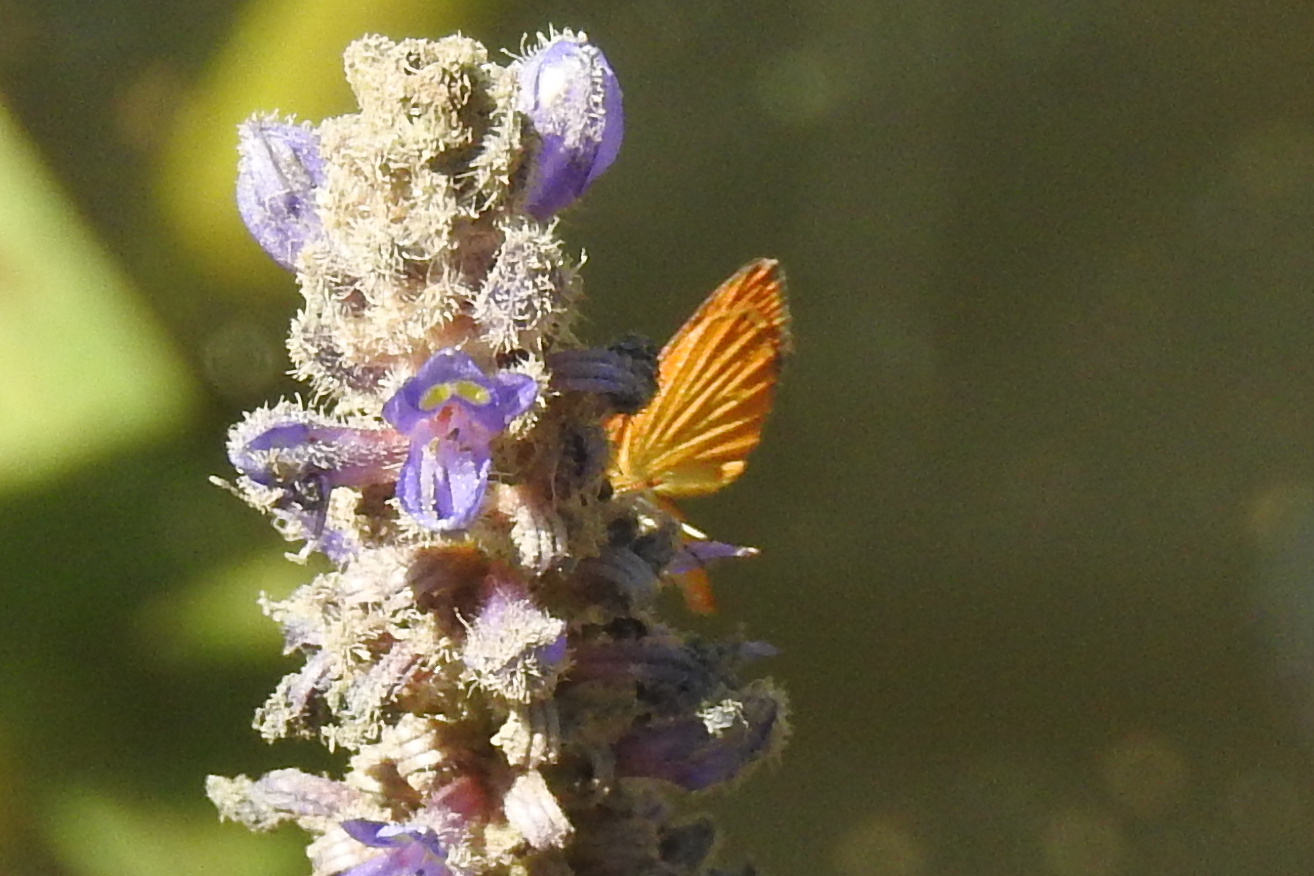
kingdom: Animalia
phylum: Arthropoda
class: Insecta
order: Lepidoptera
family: Hesperiidae
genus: Ancyloxypha
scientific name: Ancyloxypha numitor
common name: Least skipper
